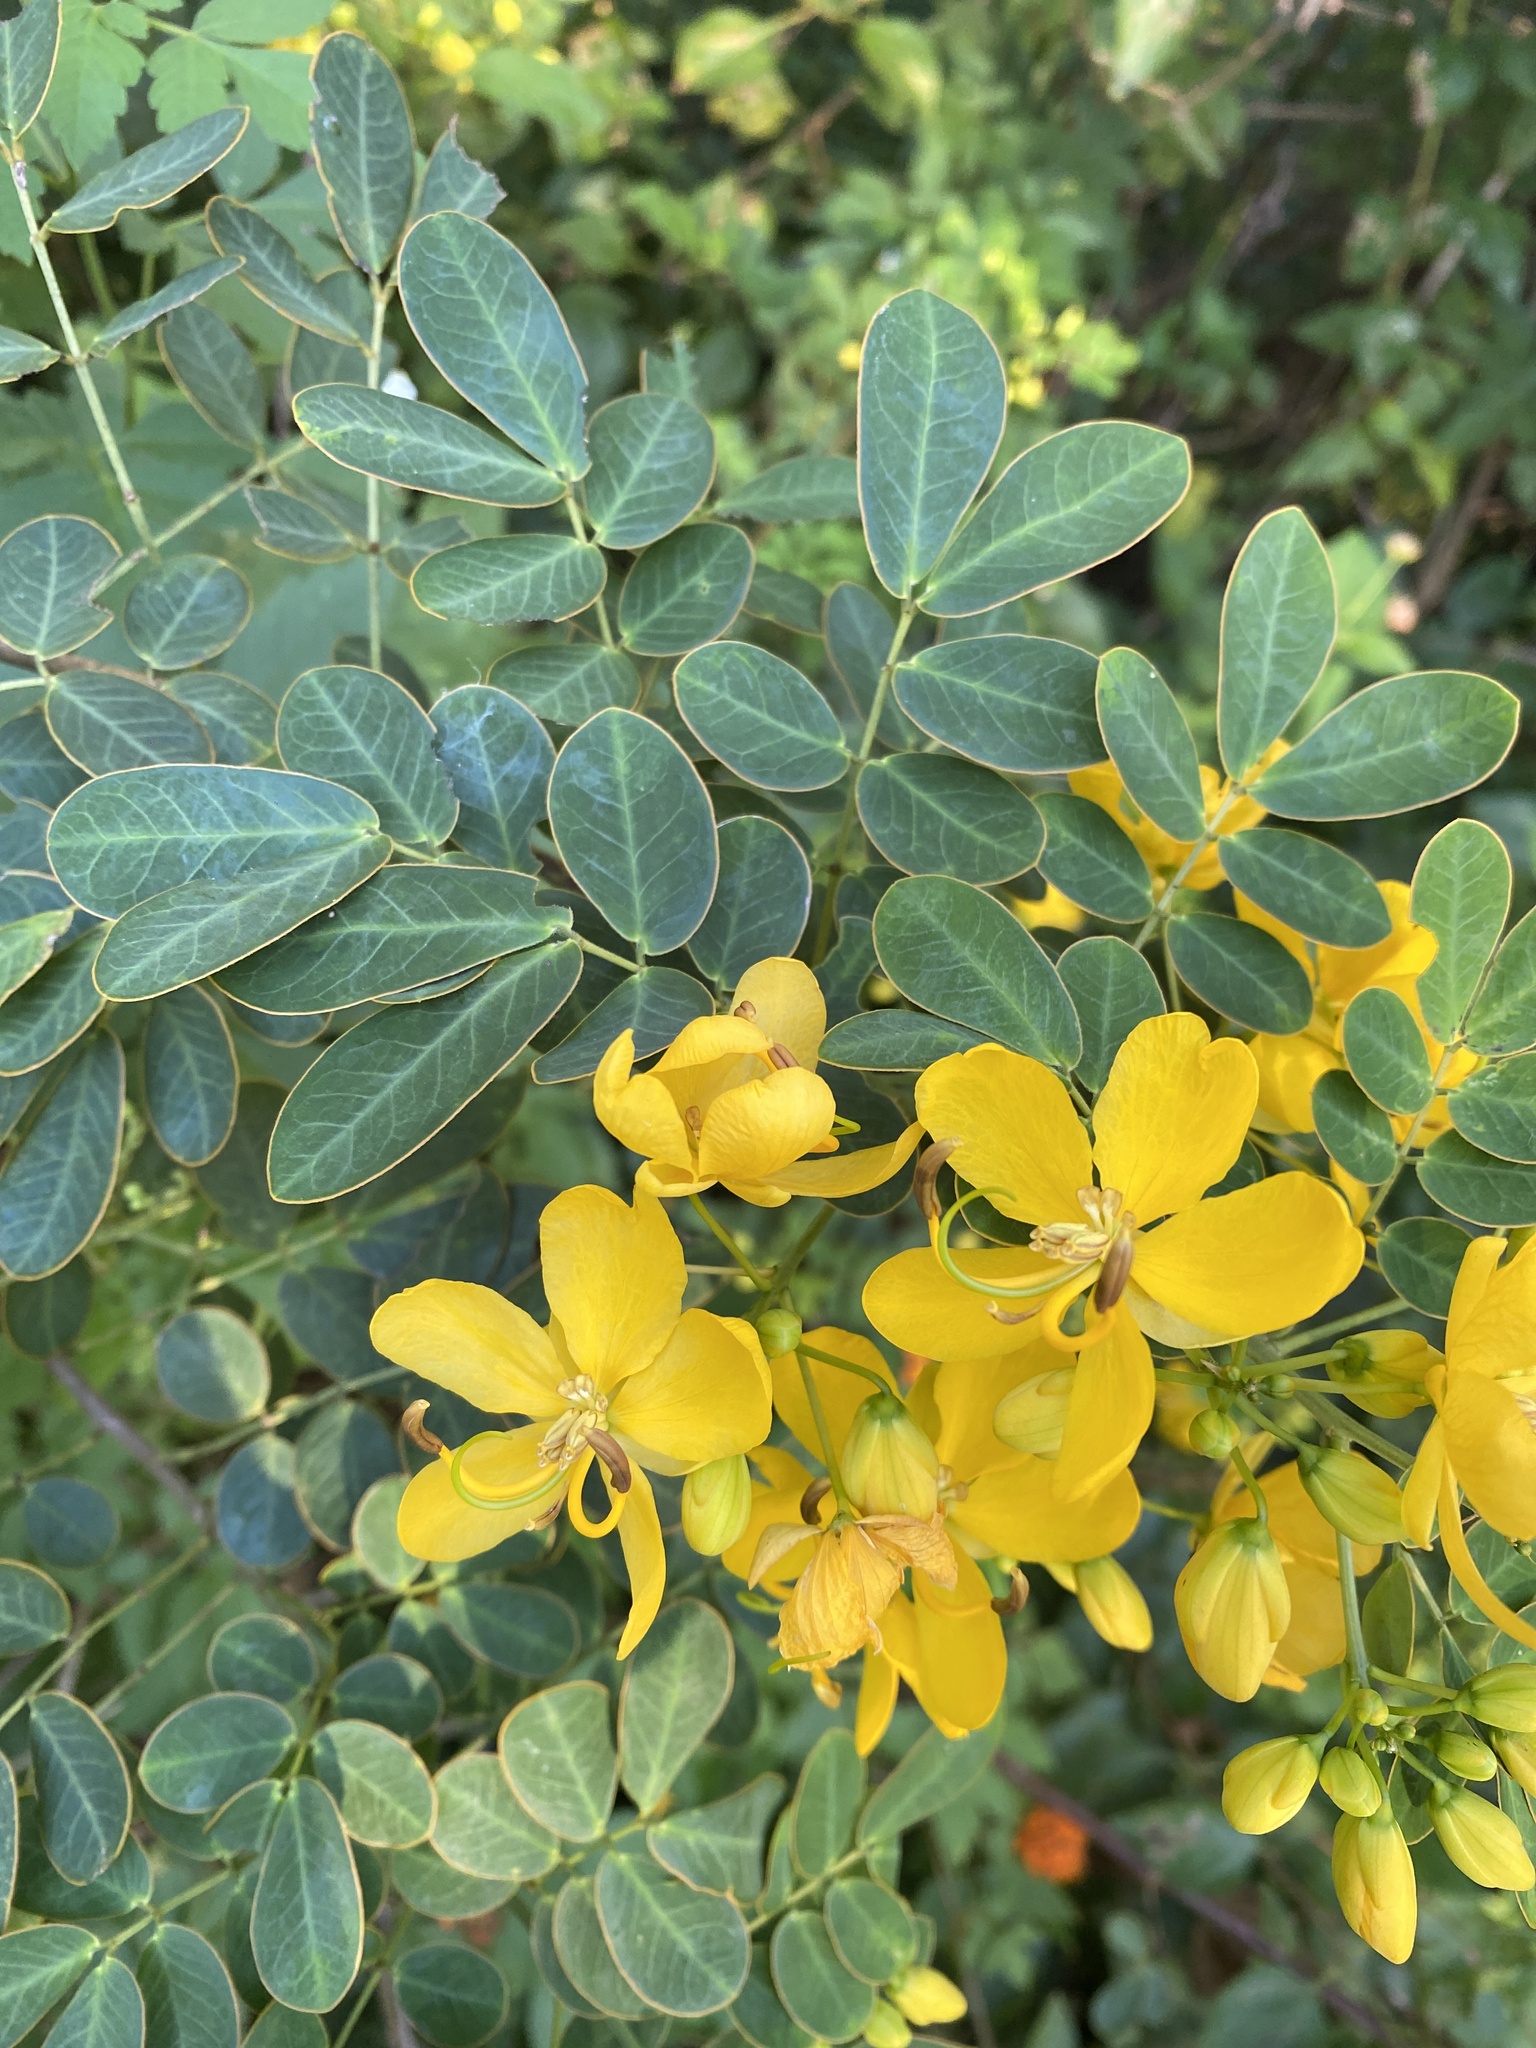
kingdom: Plantae
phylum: Tracheophyta
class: Magnoliopsida
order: Fabales
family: Fabaceae
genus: Senna
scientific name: Senna pendula
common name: Easter cassia
